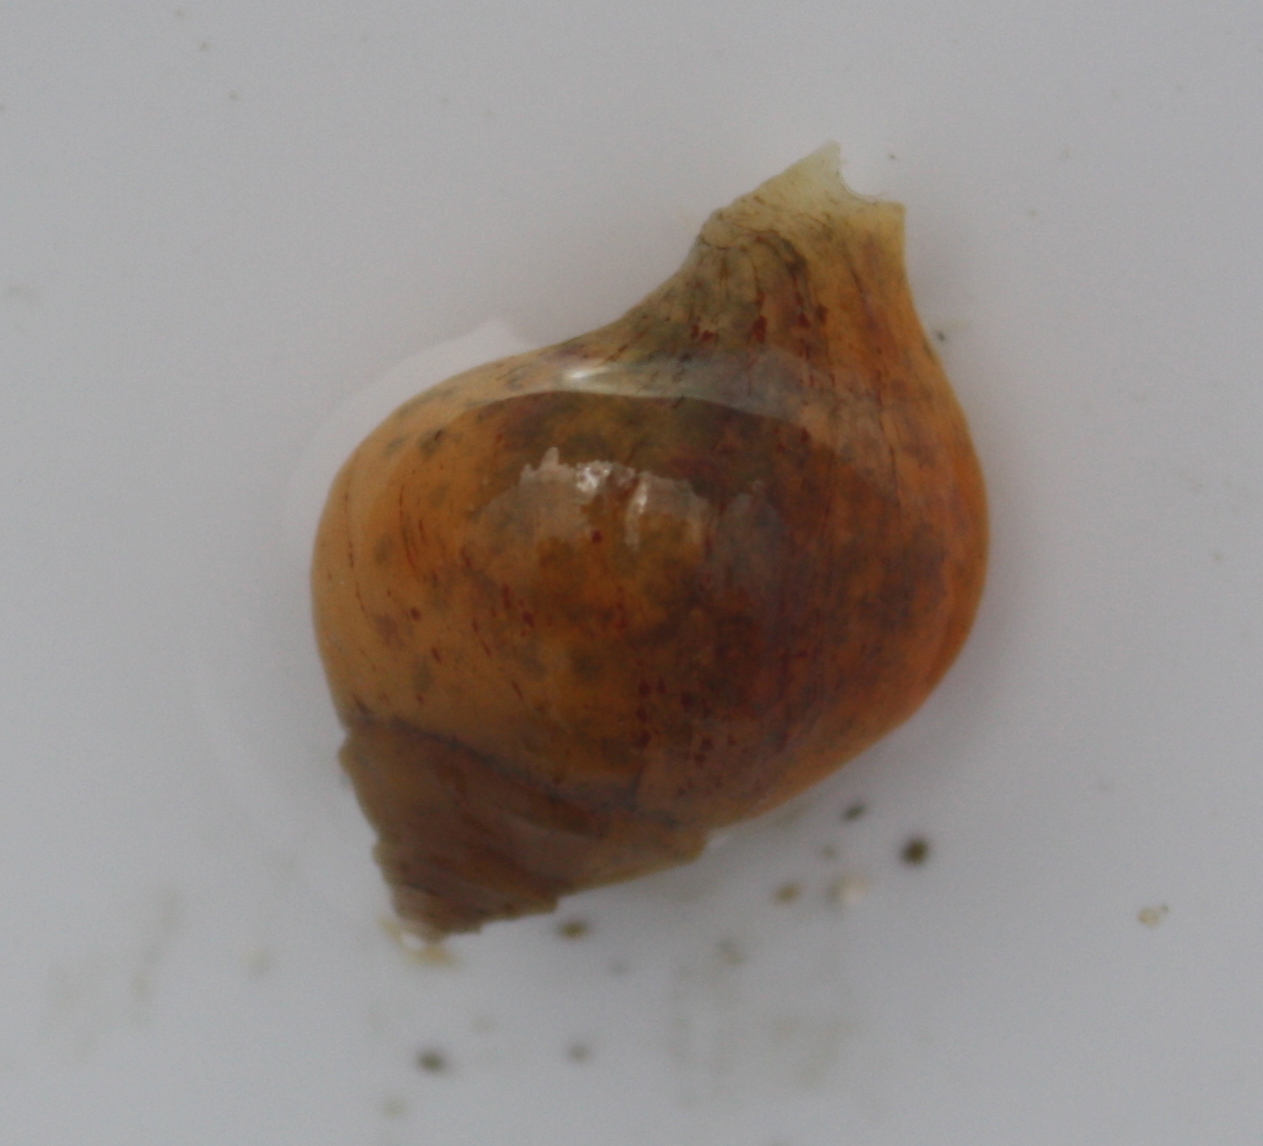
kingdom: Animalia
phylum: Mollusca
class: Gastropoda
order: Neogastropoda
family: Muricidae
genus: Nucella
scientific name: Nucella lamellosa
